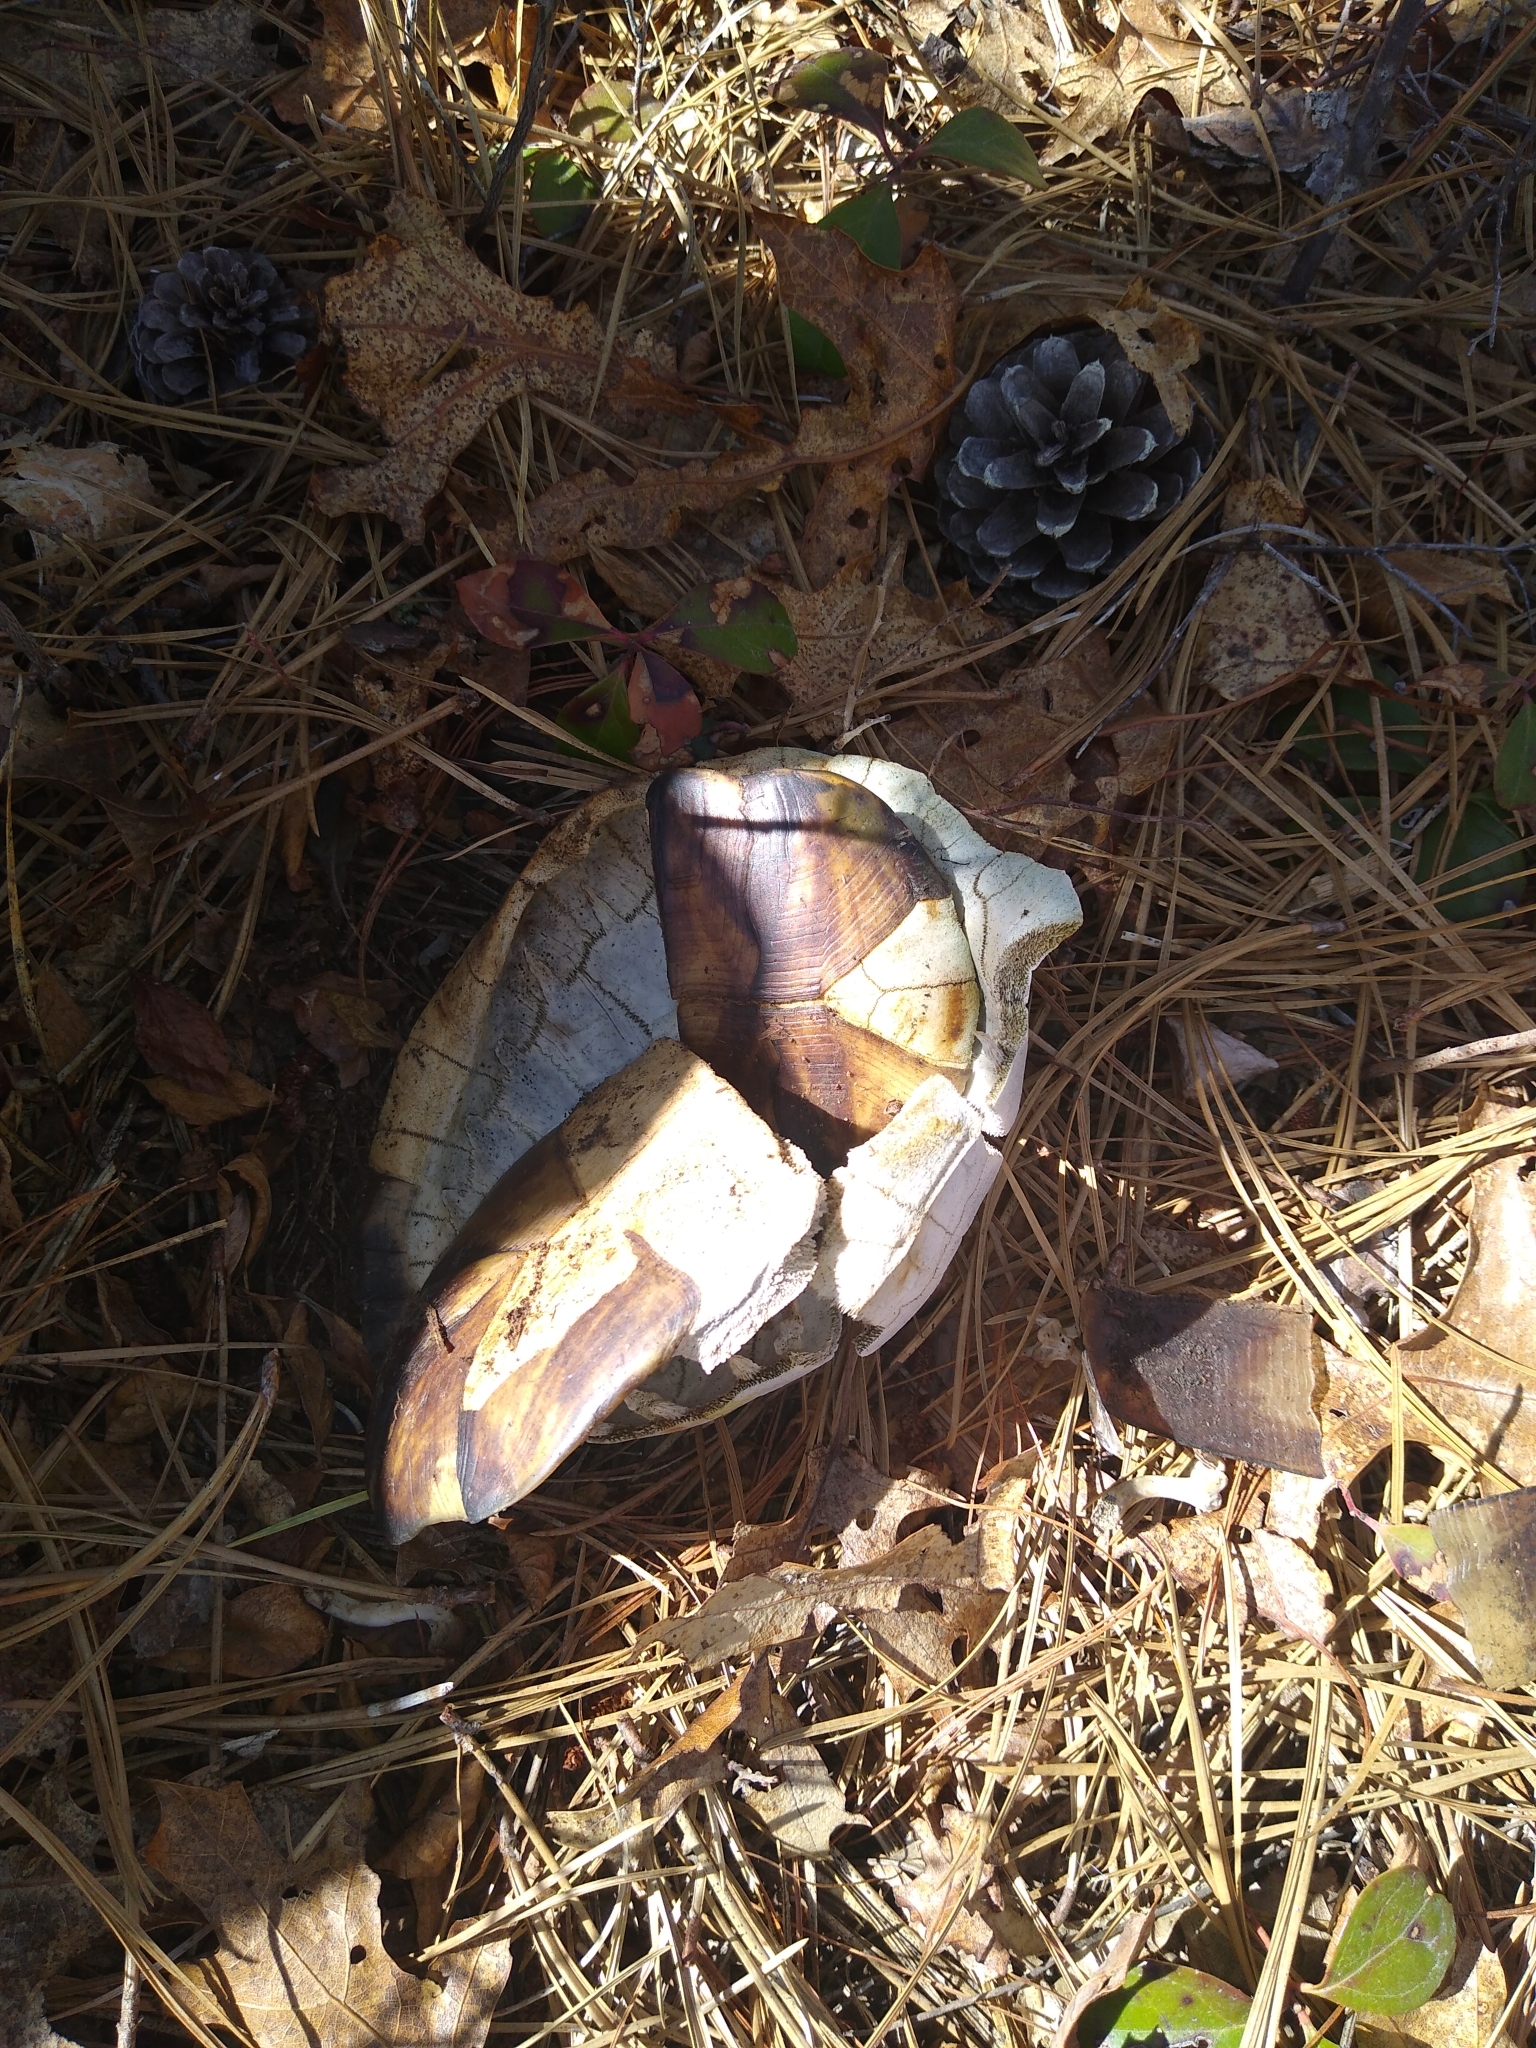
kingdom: Animalia
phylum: Chordata
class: Testudines
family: Emydidae
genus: Terrapene
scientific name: Terrapene carolina
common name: Common box turtle
